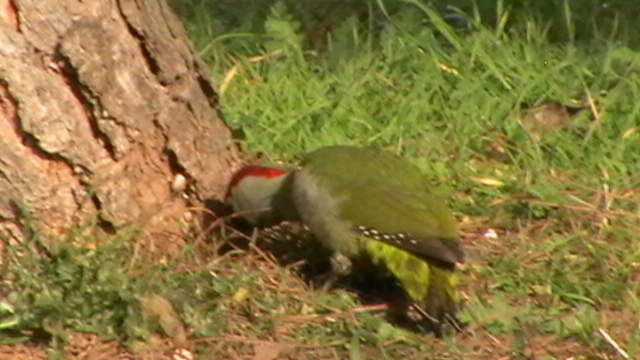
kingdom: Animalia
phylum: Chordata
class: Aves
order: Piciformes
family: Picidae
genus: Picus
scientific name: Picus sharpei
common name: Iberian green woodpecker
